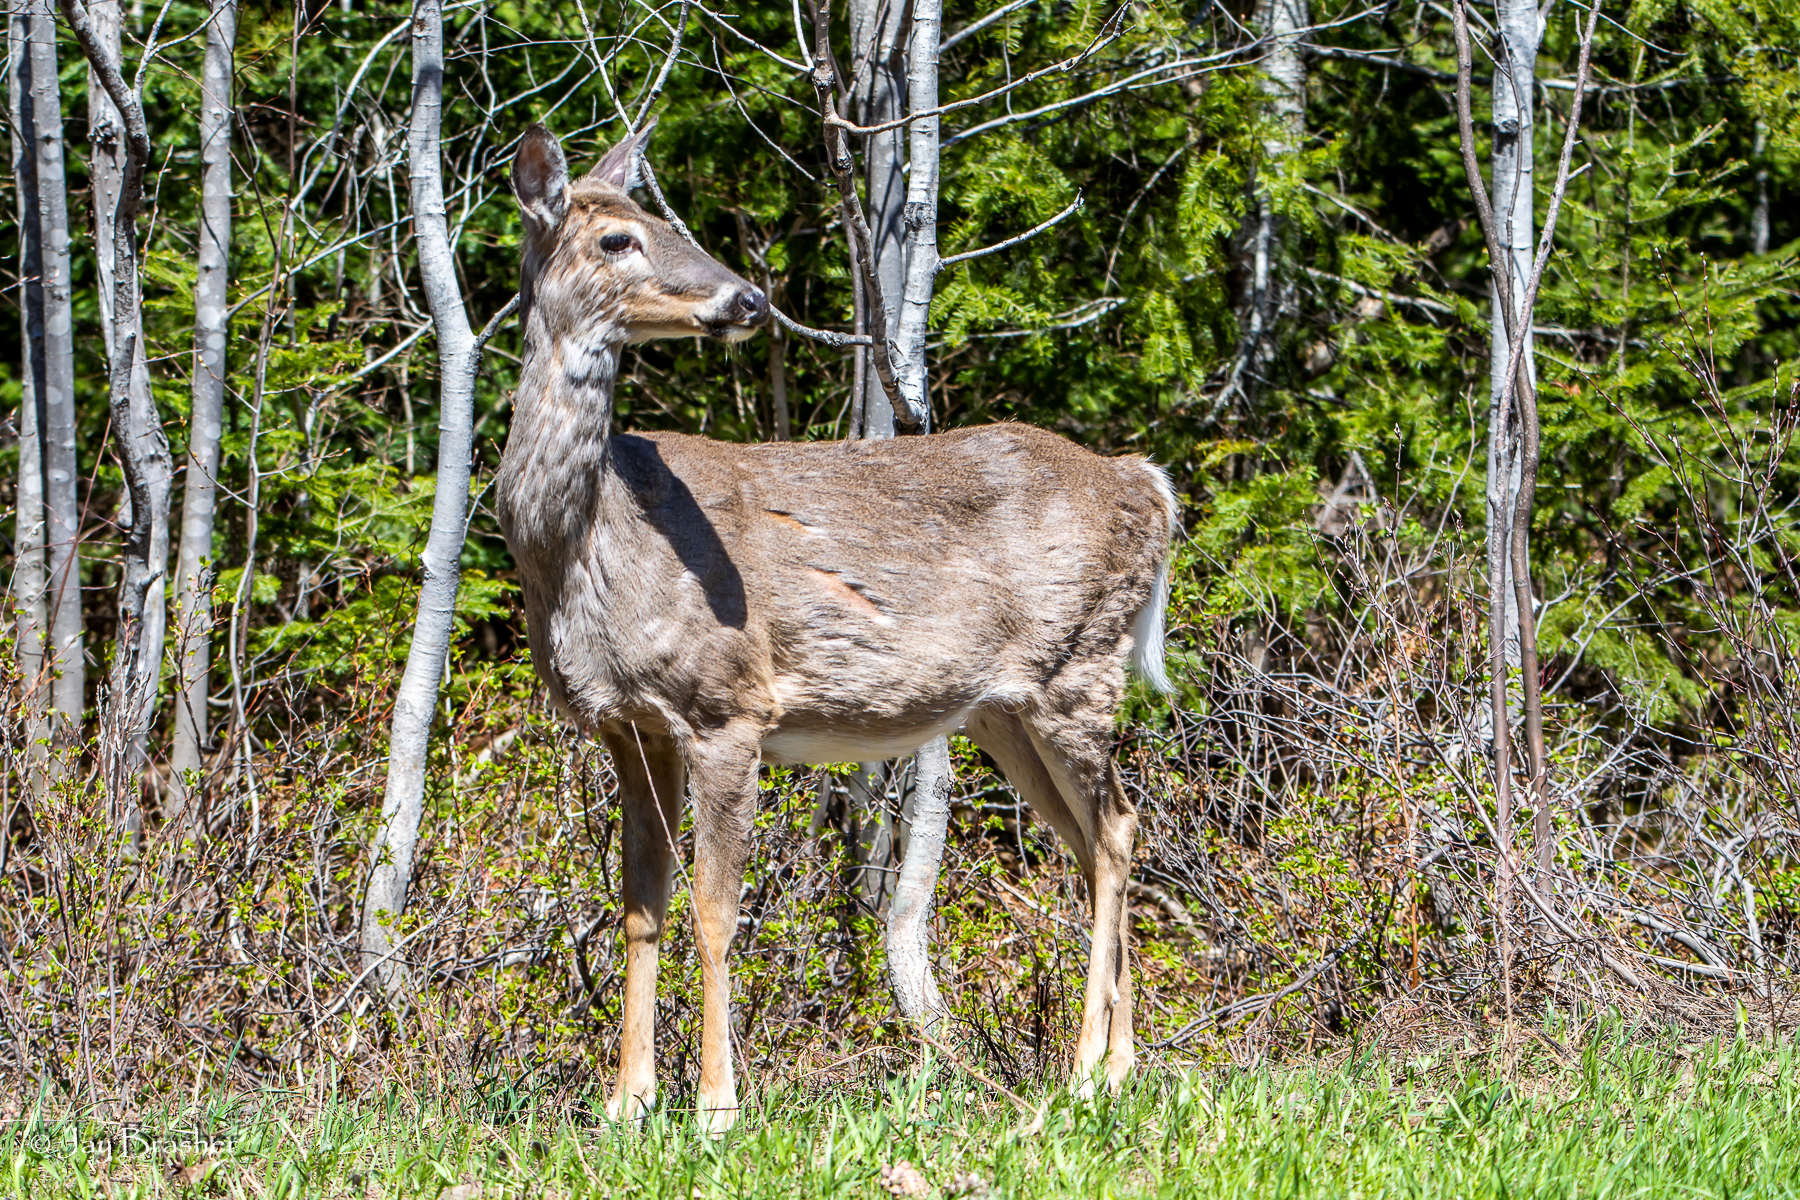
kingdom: Animalia
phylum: Chordata
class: Mammalia
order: Artiodactyla
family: Cervidae
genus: Odocoileus
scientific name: Odocoileus virginianus
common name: White-tailed deer
